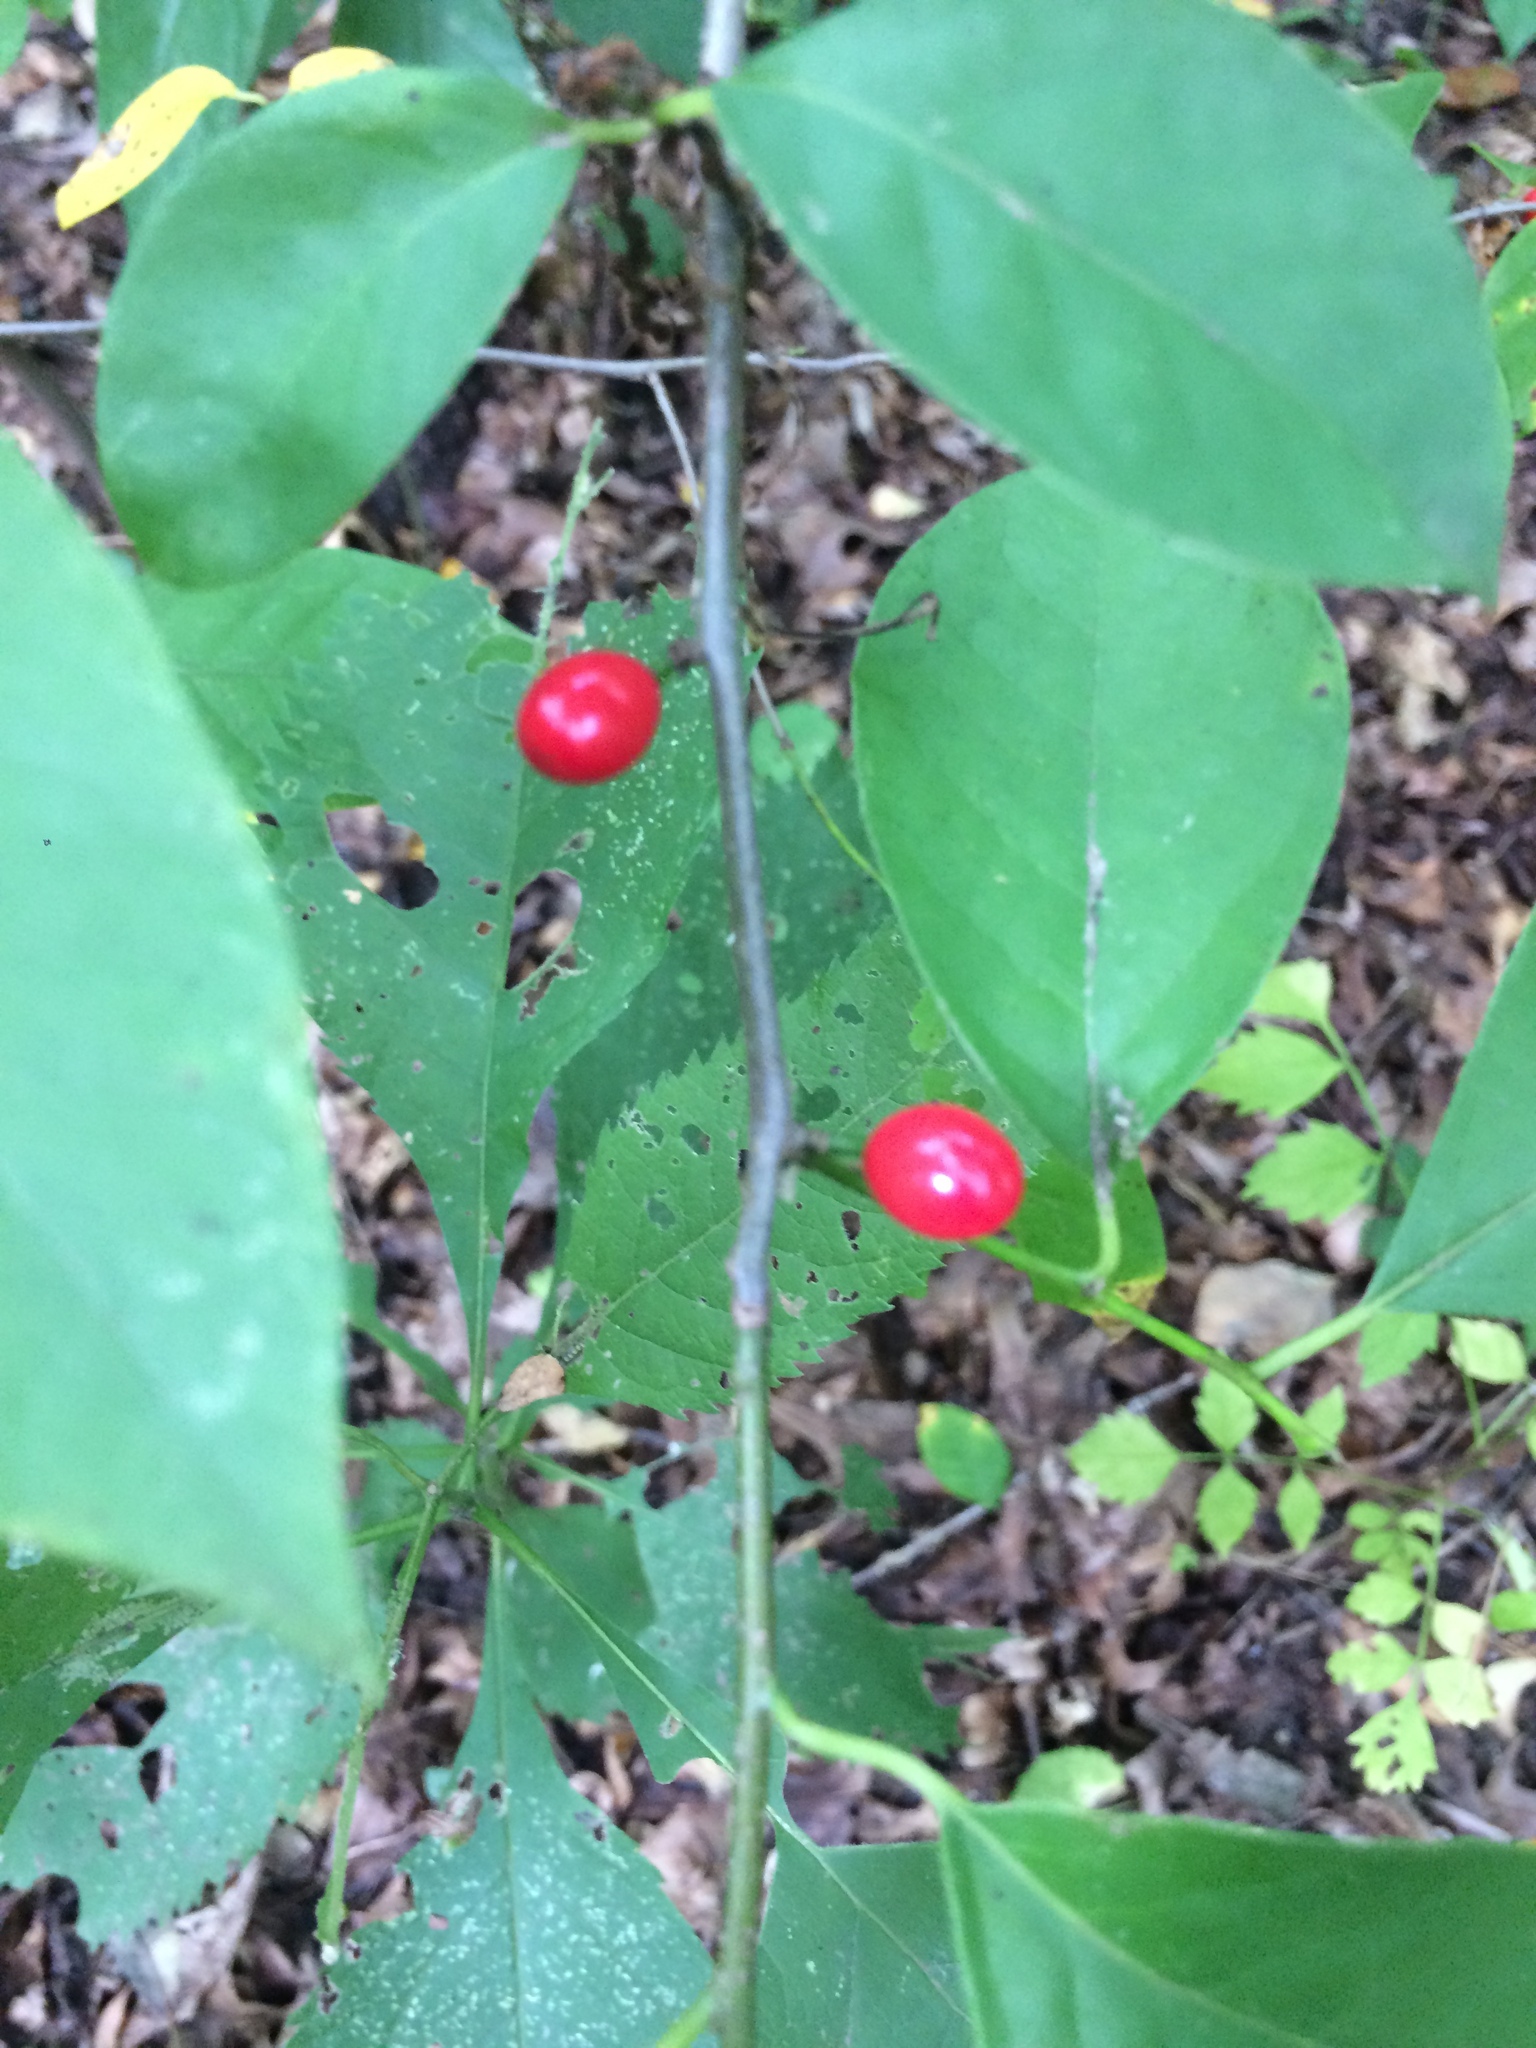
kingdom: Plantae
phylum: Tracheophyta
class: Magnoliopsida
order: Laurales
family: Lauraceae
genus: Lindera
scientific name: Lindera benzoin
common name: Spicebush
